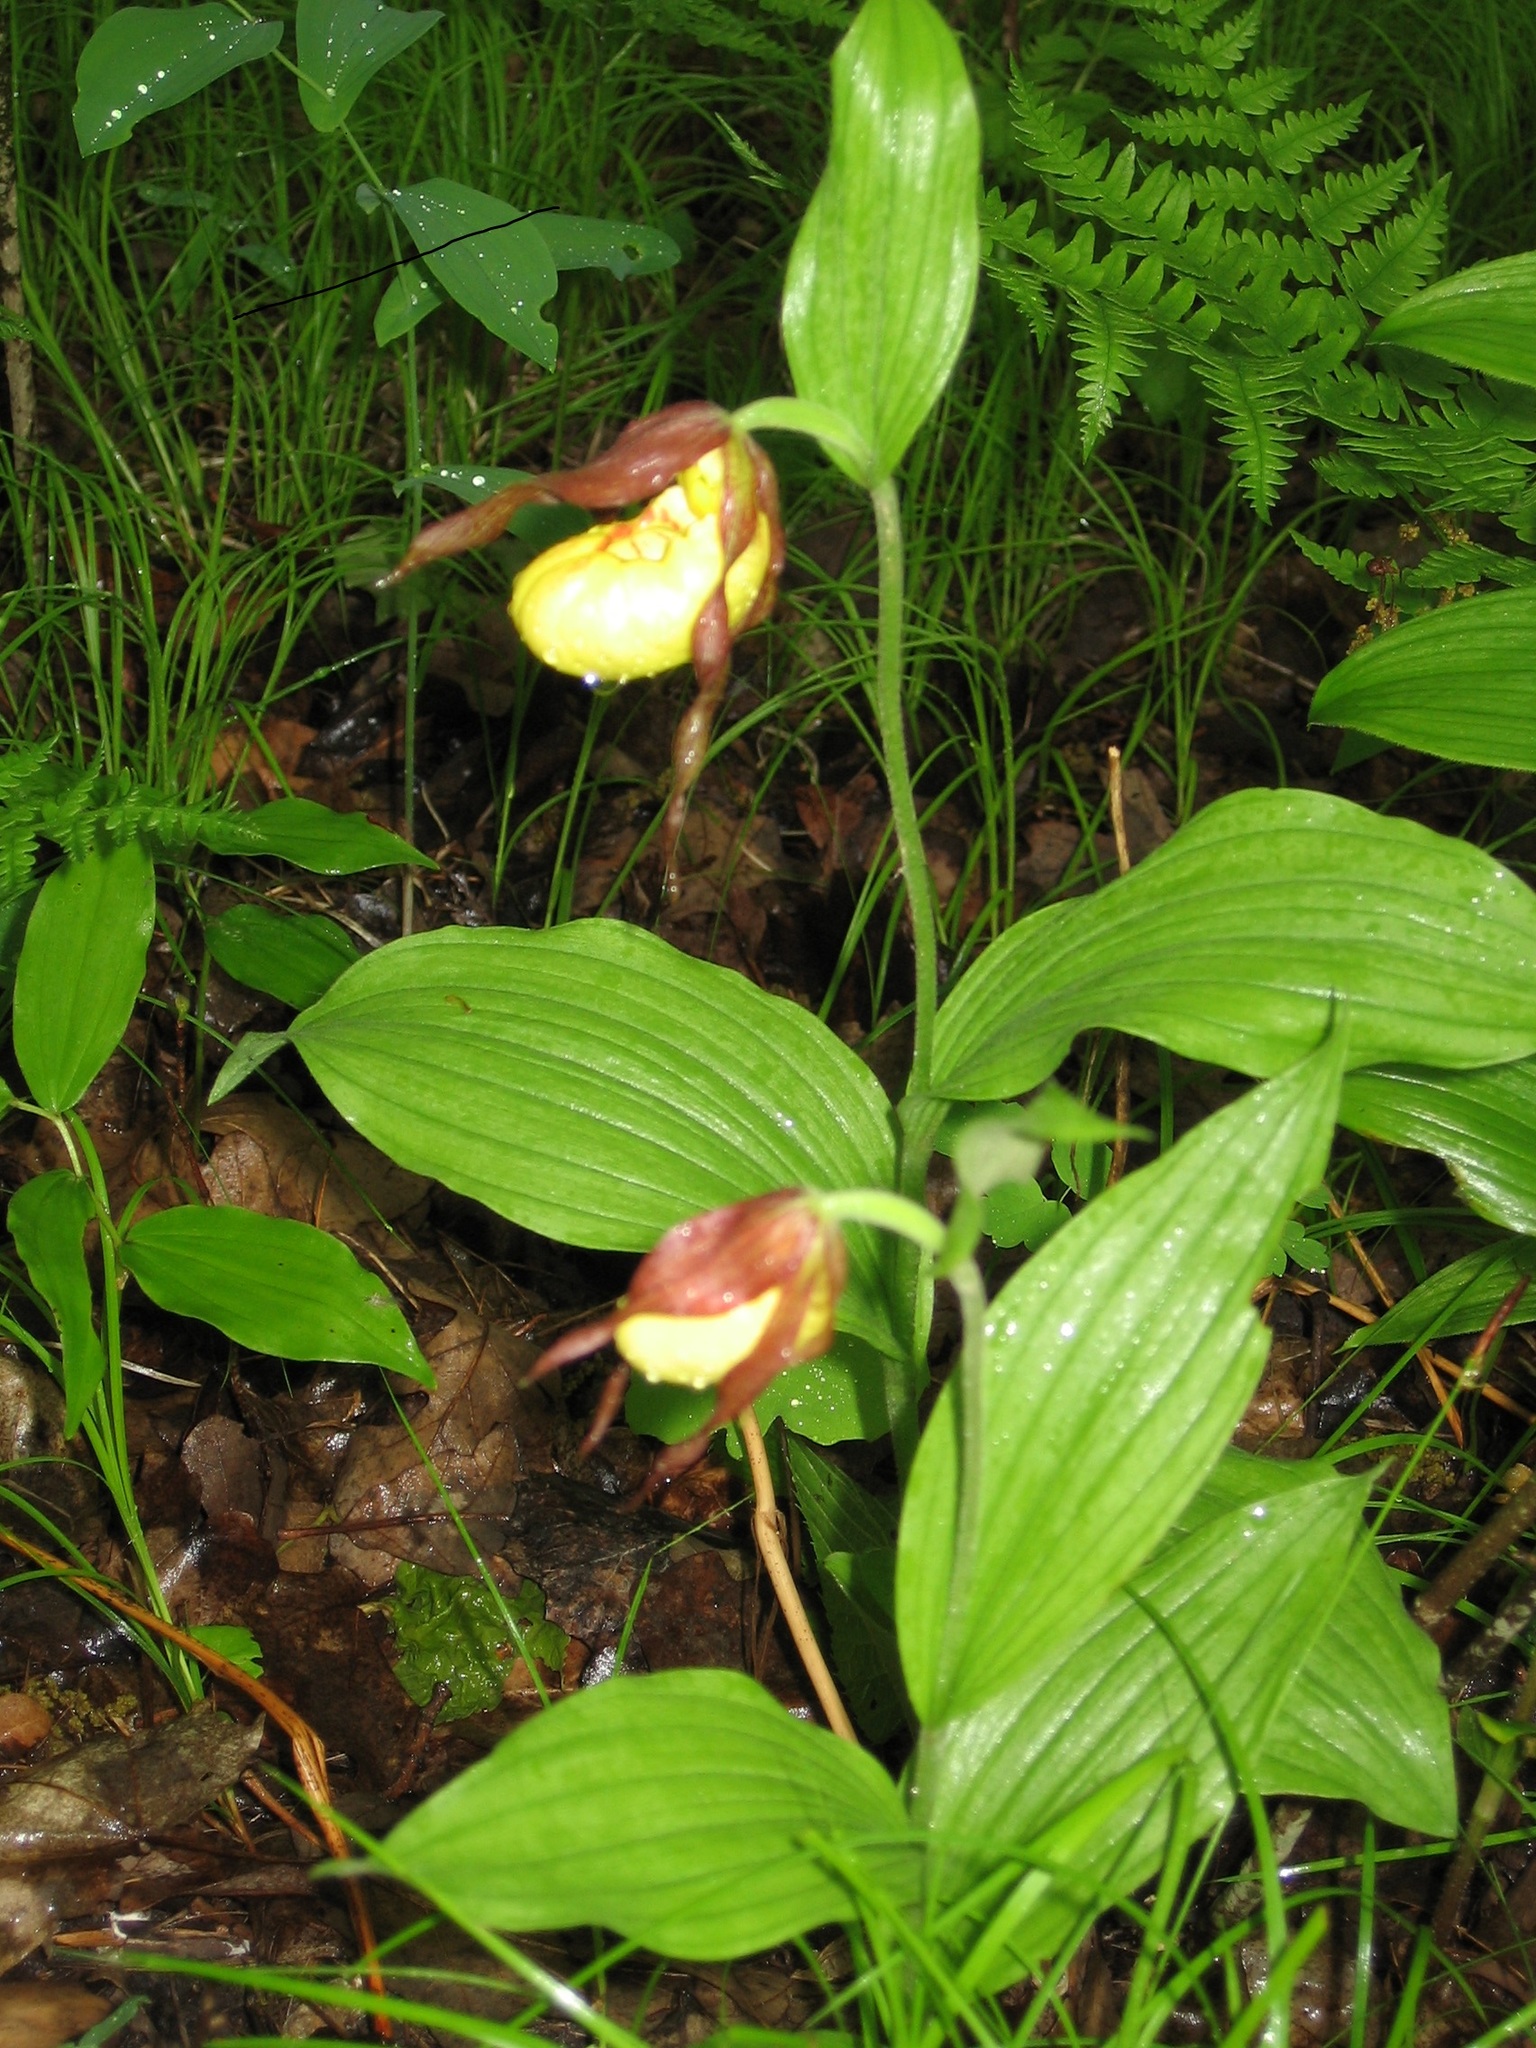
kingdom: Plantae
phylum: Tracheophyta
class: Liliopsida
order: Asparagales
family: Orchidaceae
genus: Cypripedium
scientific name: Cypripedium parviflorum
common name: American yellow lady's-slipper
